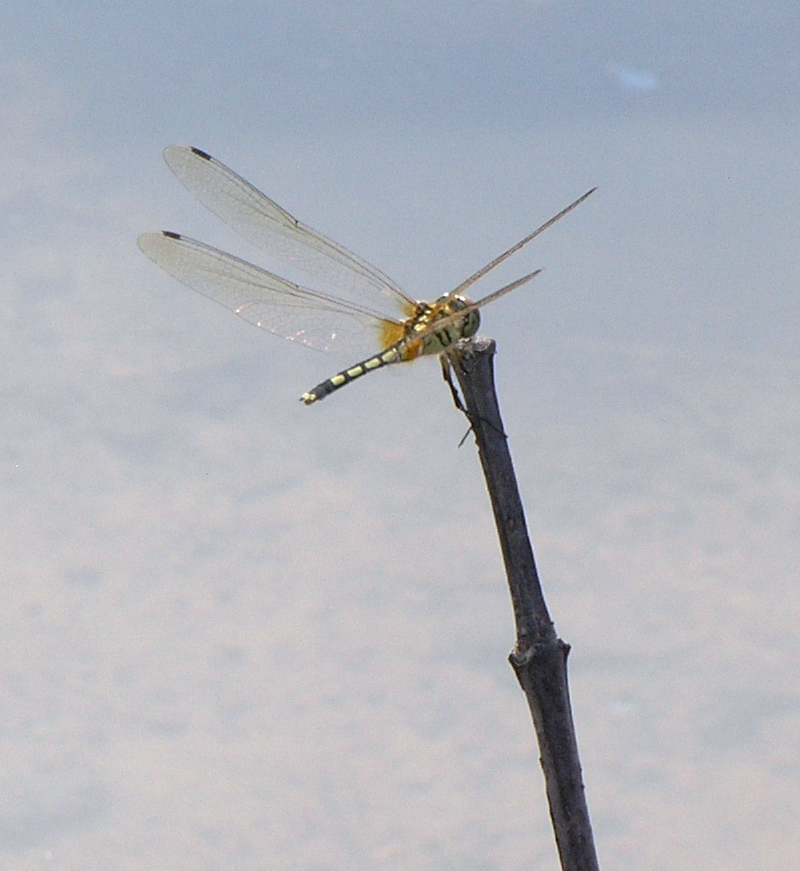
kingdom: Animalia
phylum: Arthropoda
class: Insecta
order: Odonata
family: Libellulidae
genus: Trithemis
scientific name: Trithemis pallidinervis
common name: Dancing dropwing
